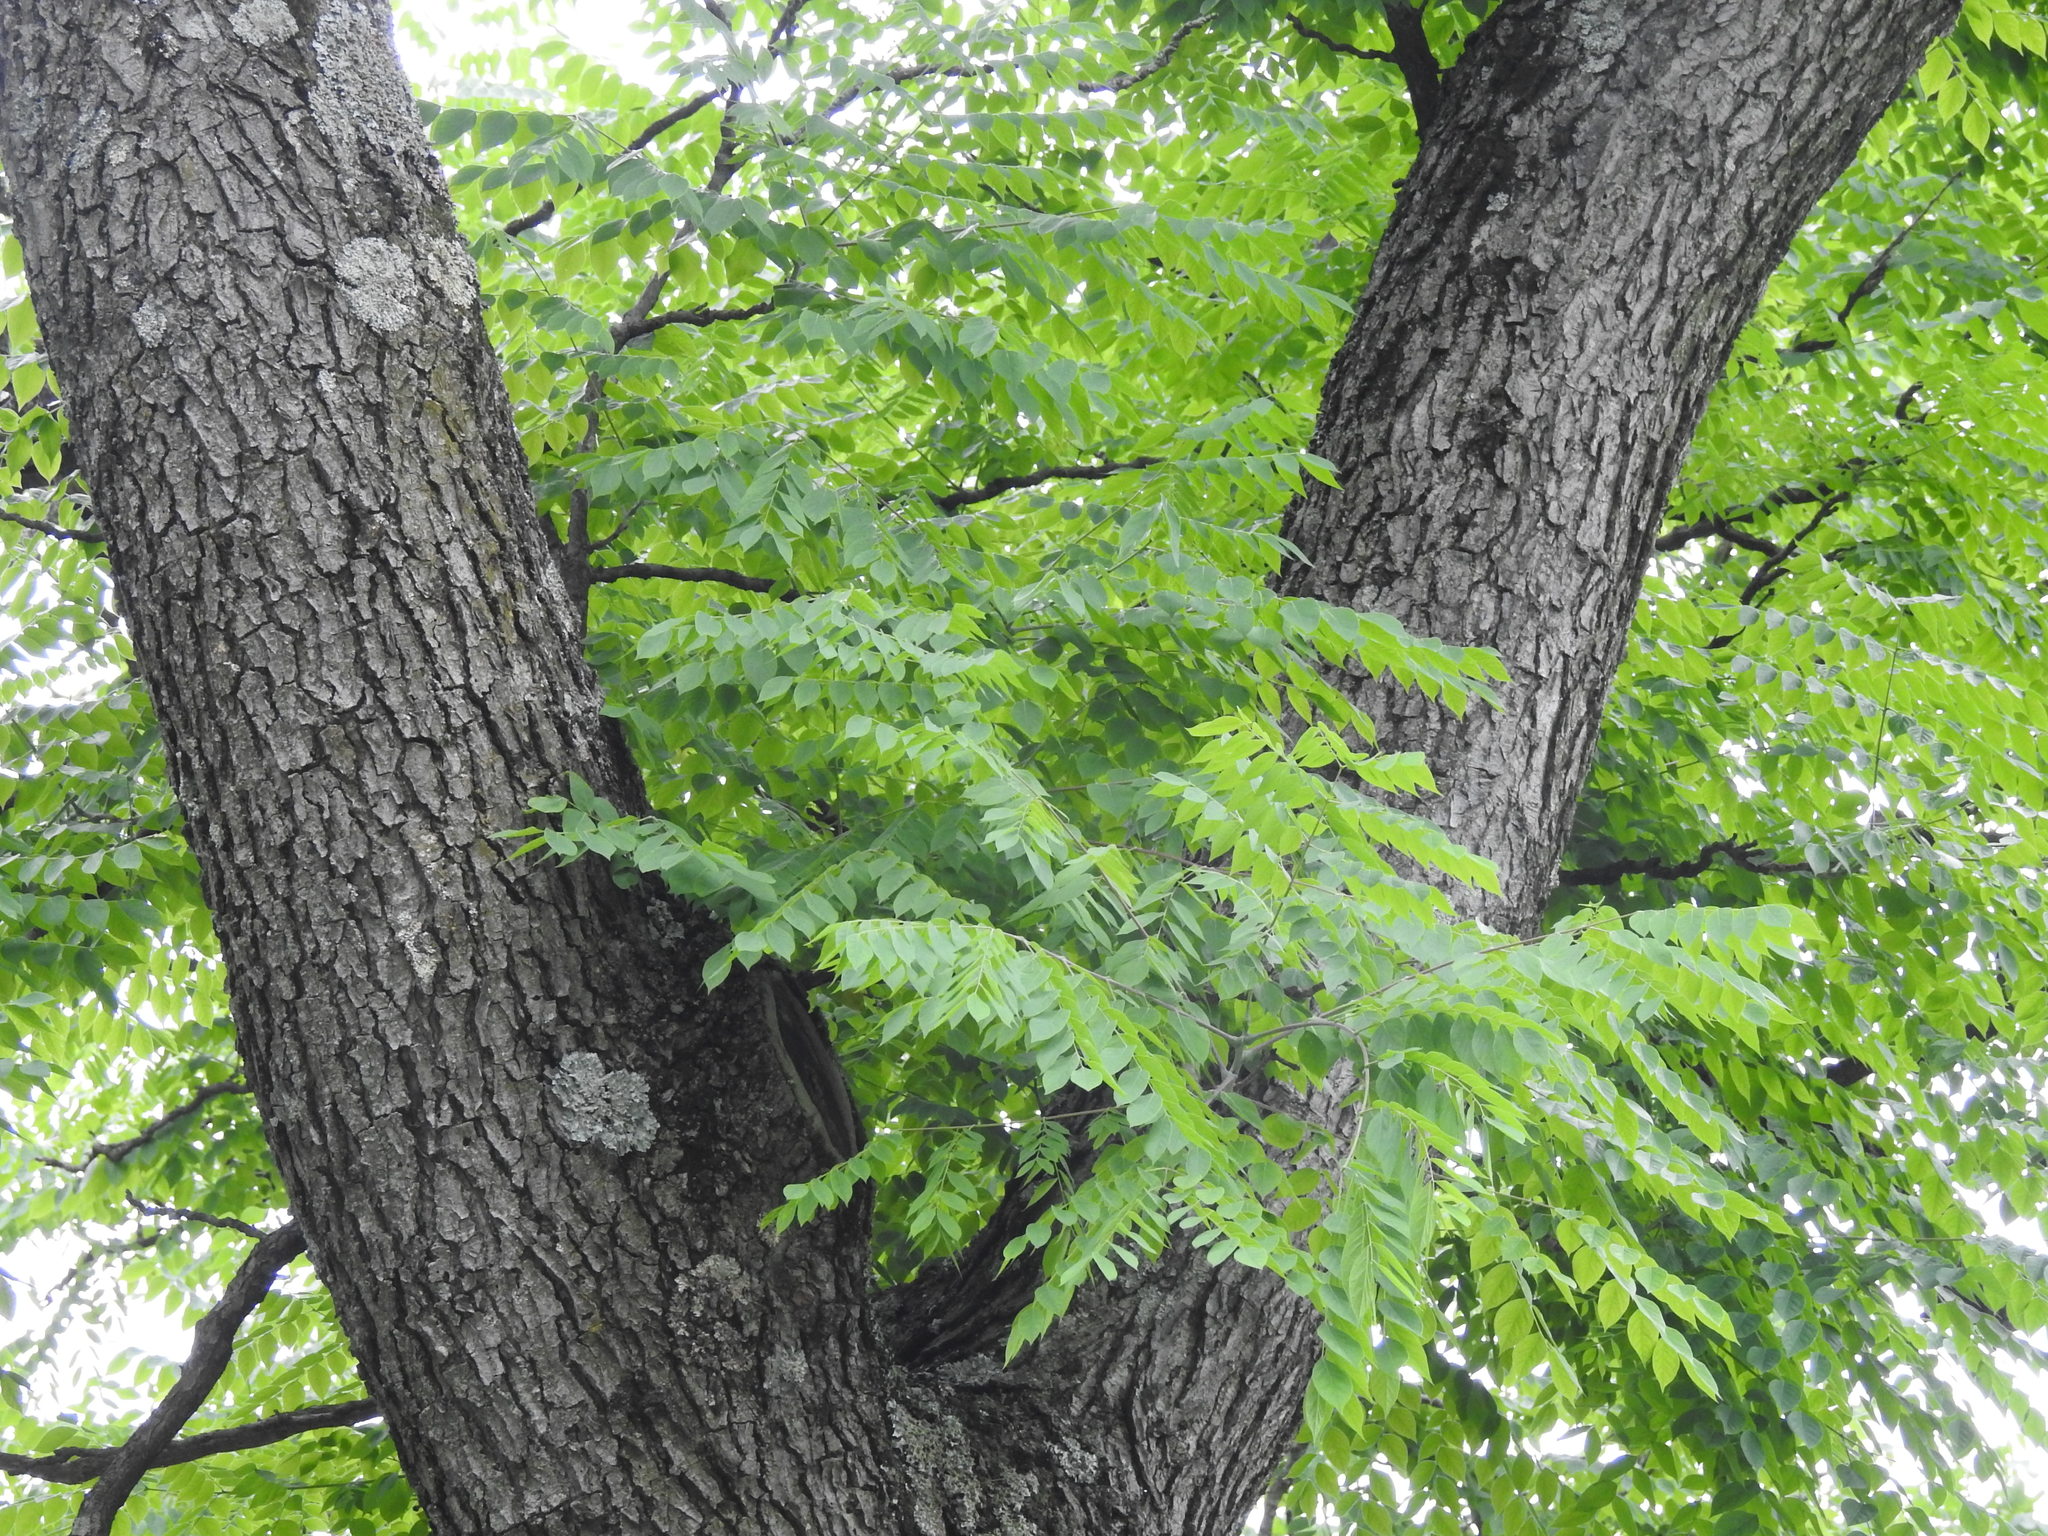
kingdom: Plantae
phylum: Tracheophyta
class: Magnoliopsida
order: Fabales
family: Fabaceae
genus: Gymnocladus
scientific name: Gymnocladus dioicus
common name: Kentucky coffee-tree
